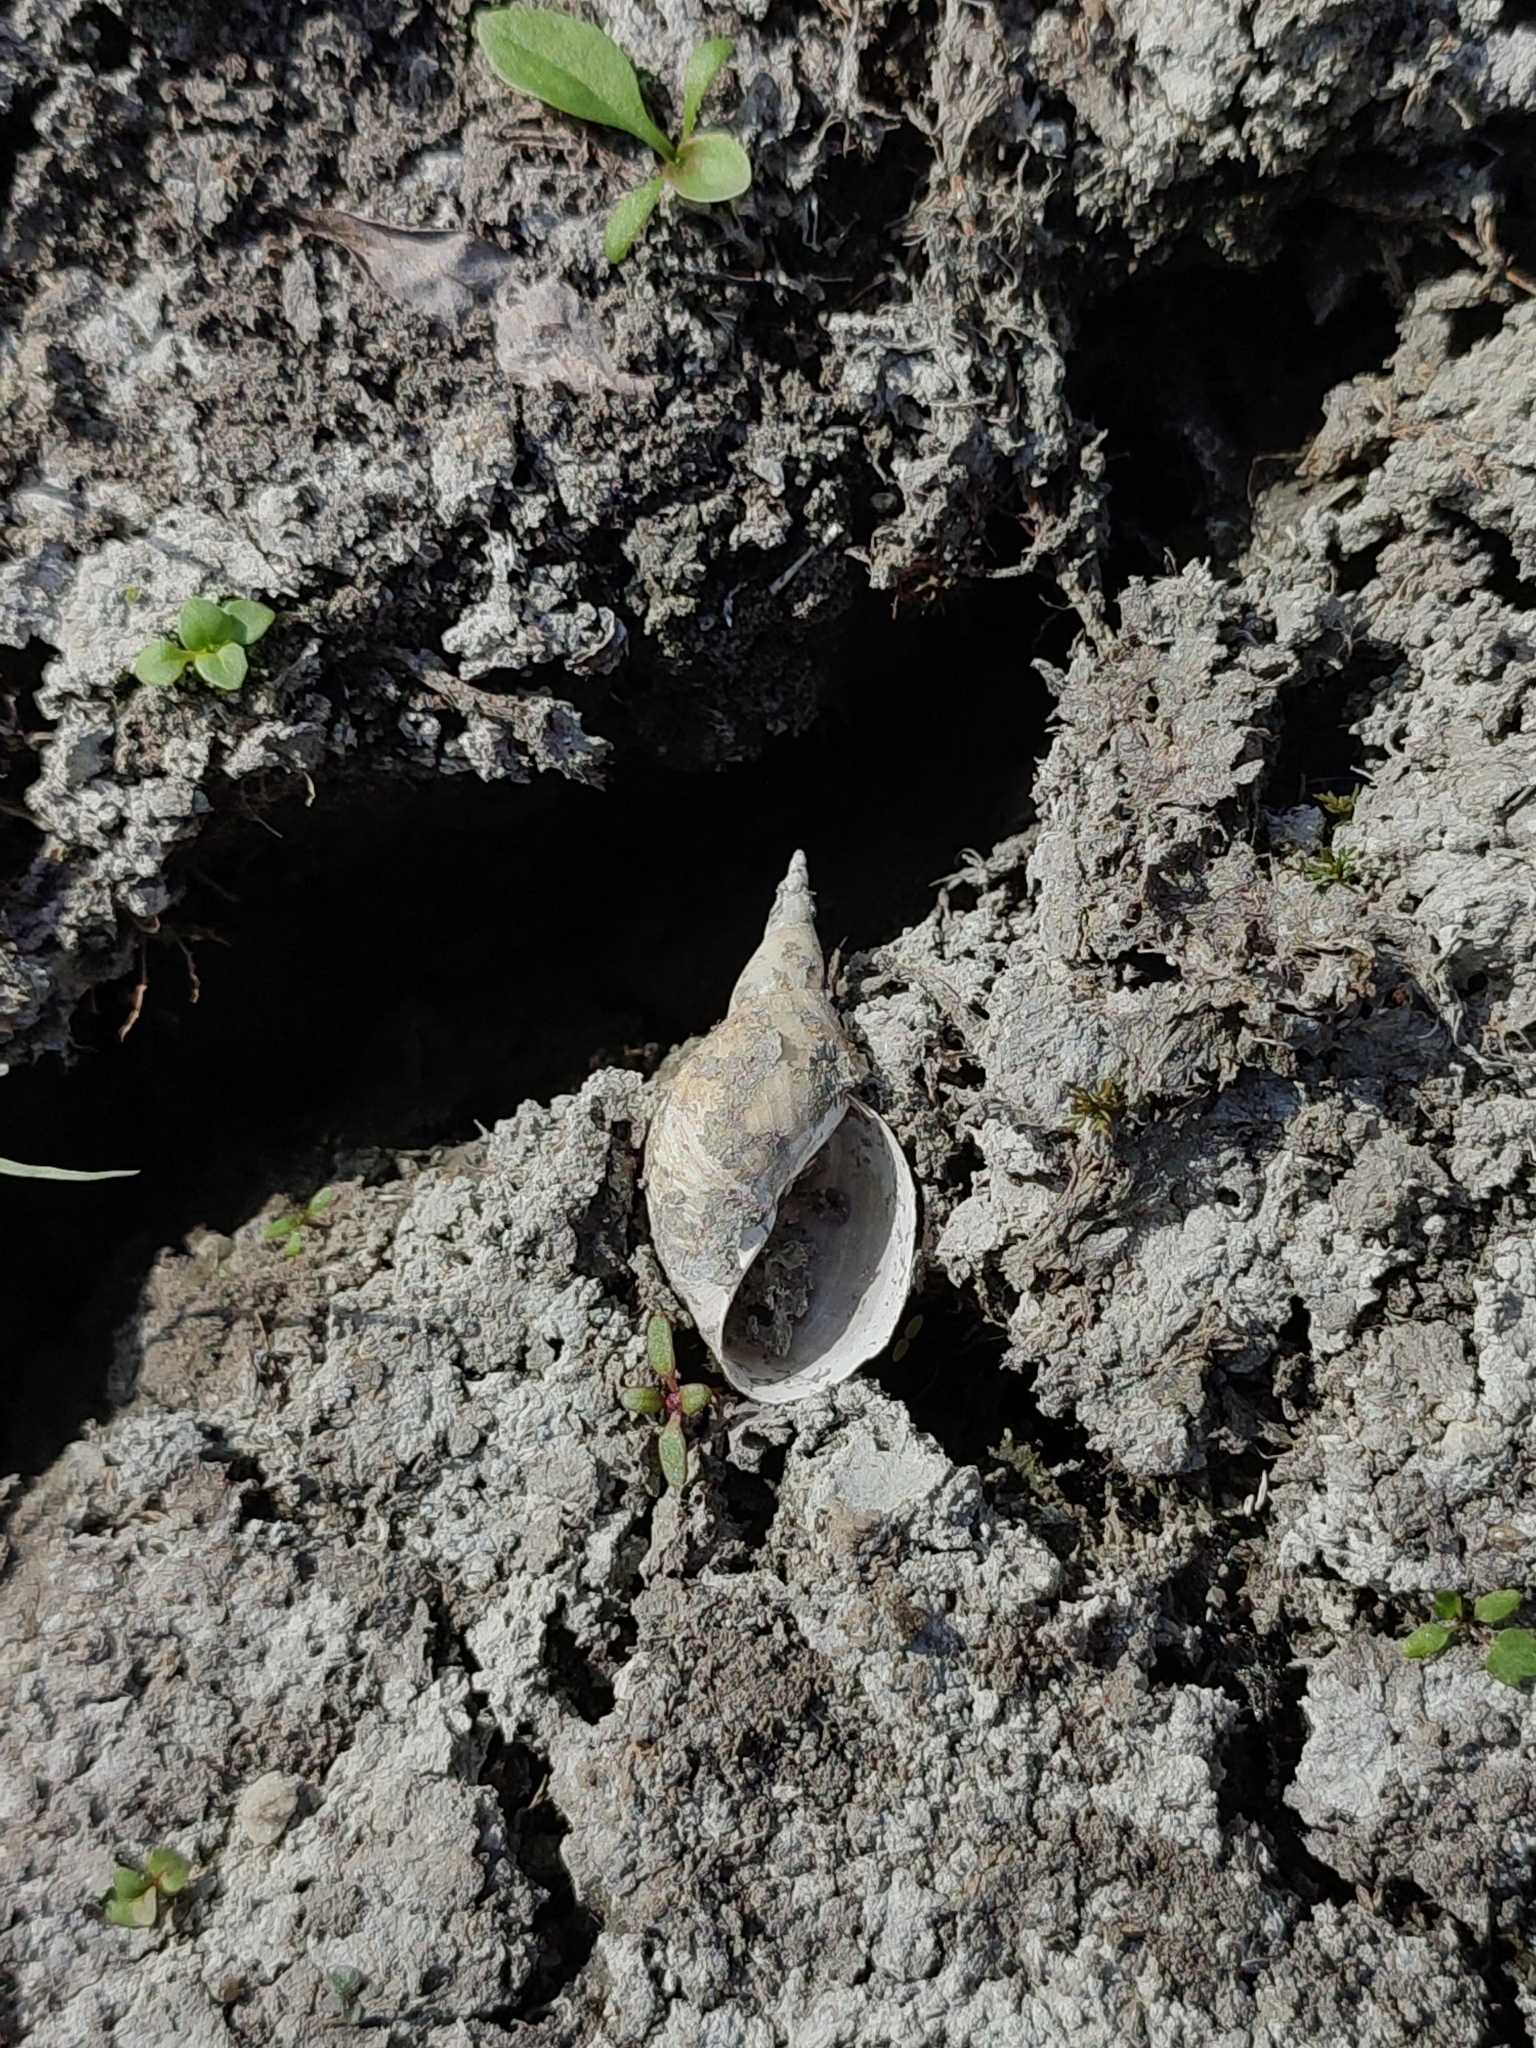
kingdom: Animalia
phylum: Mollusca
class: Gastropoda
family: Lymnaeidae
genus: Lymnaea
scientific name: Lymnaea stagnalis
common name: Great pond snail
